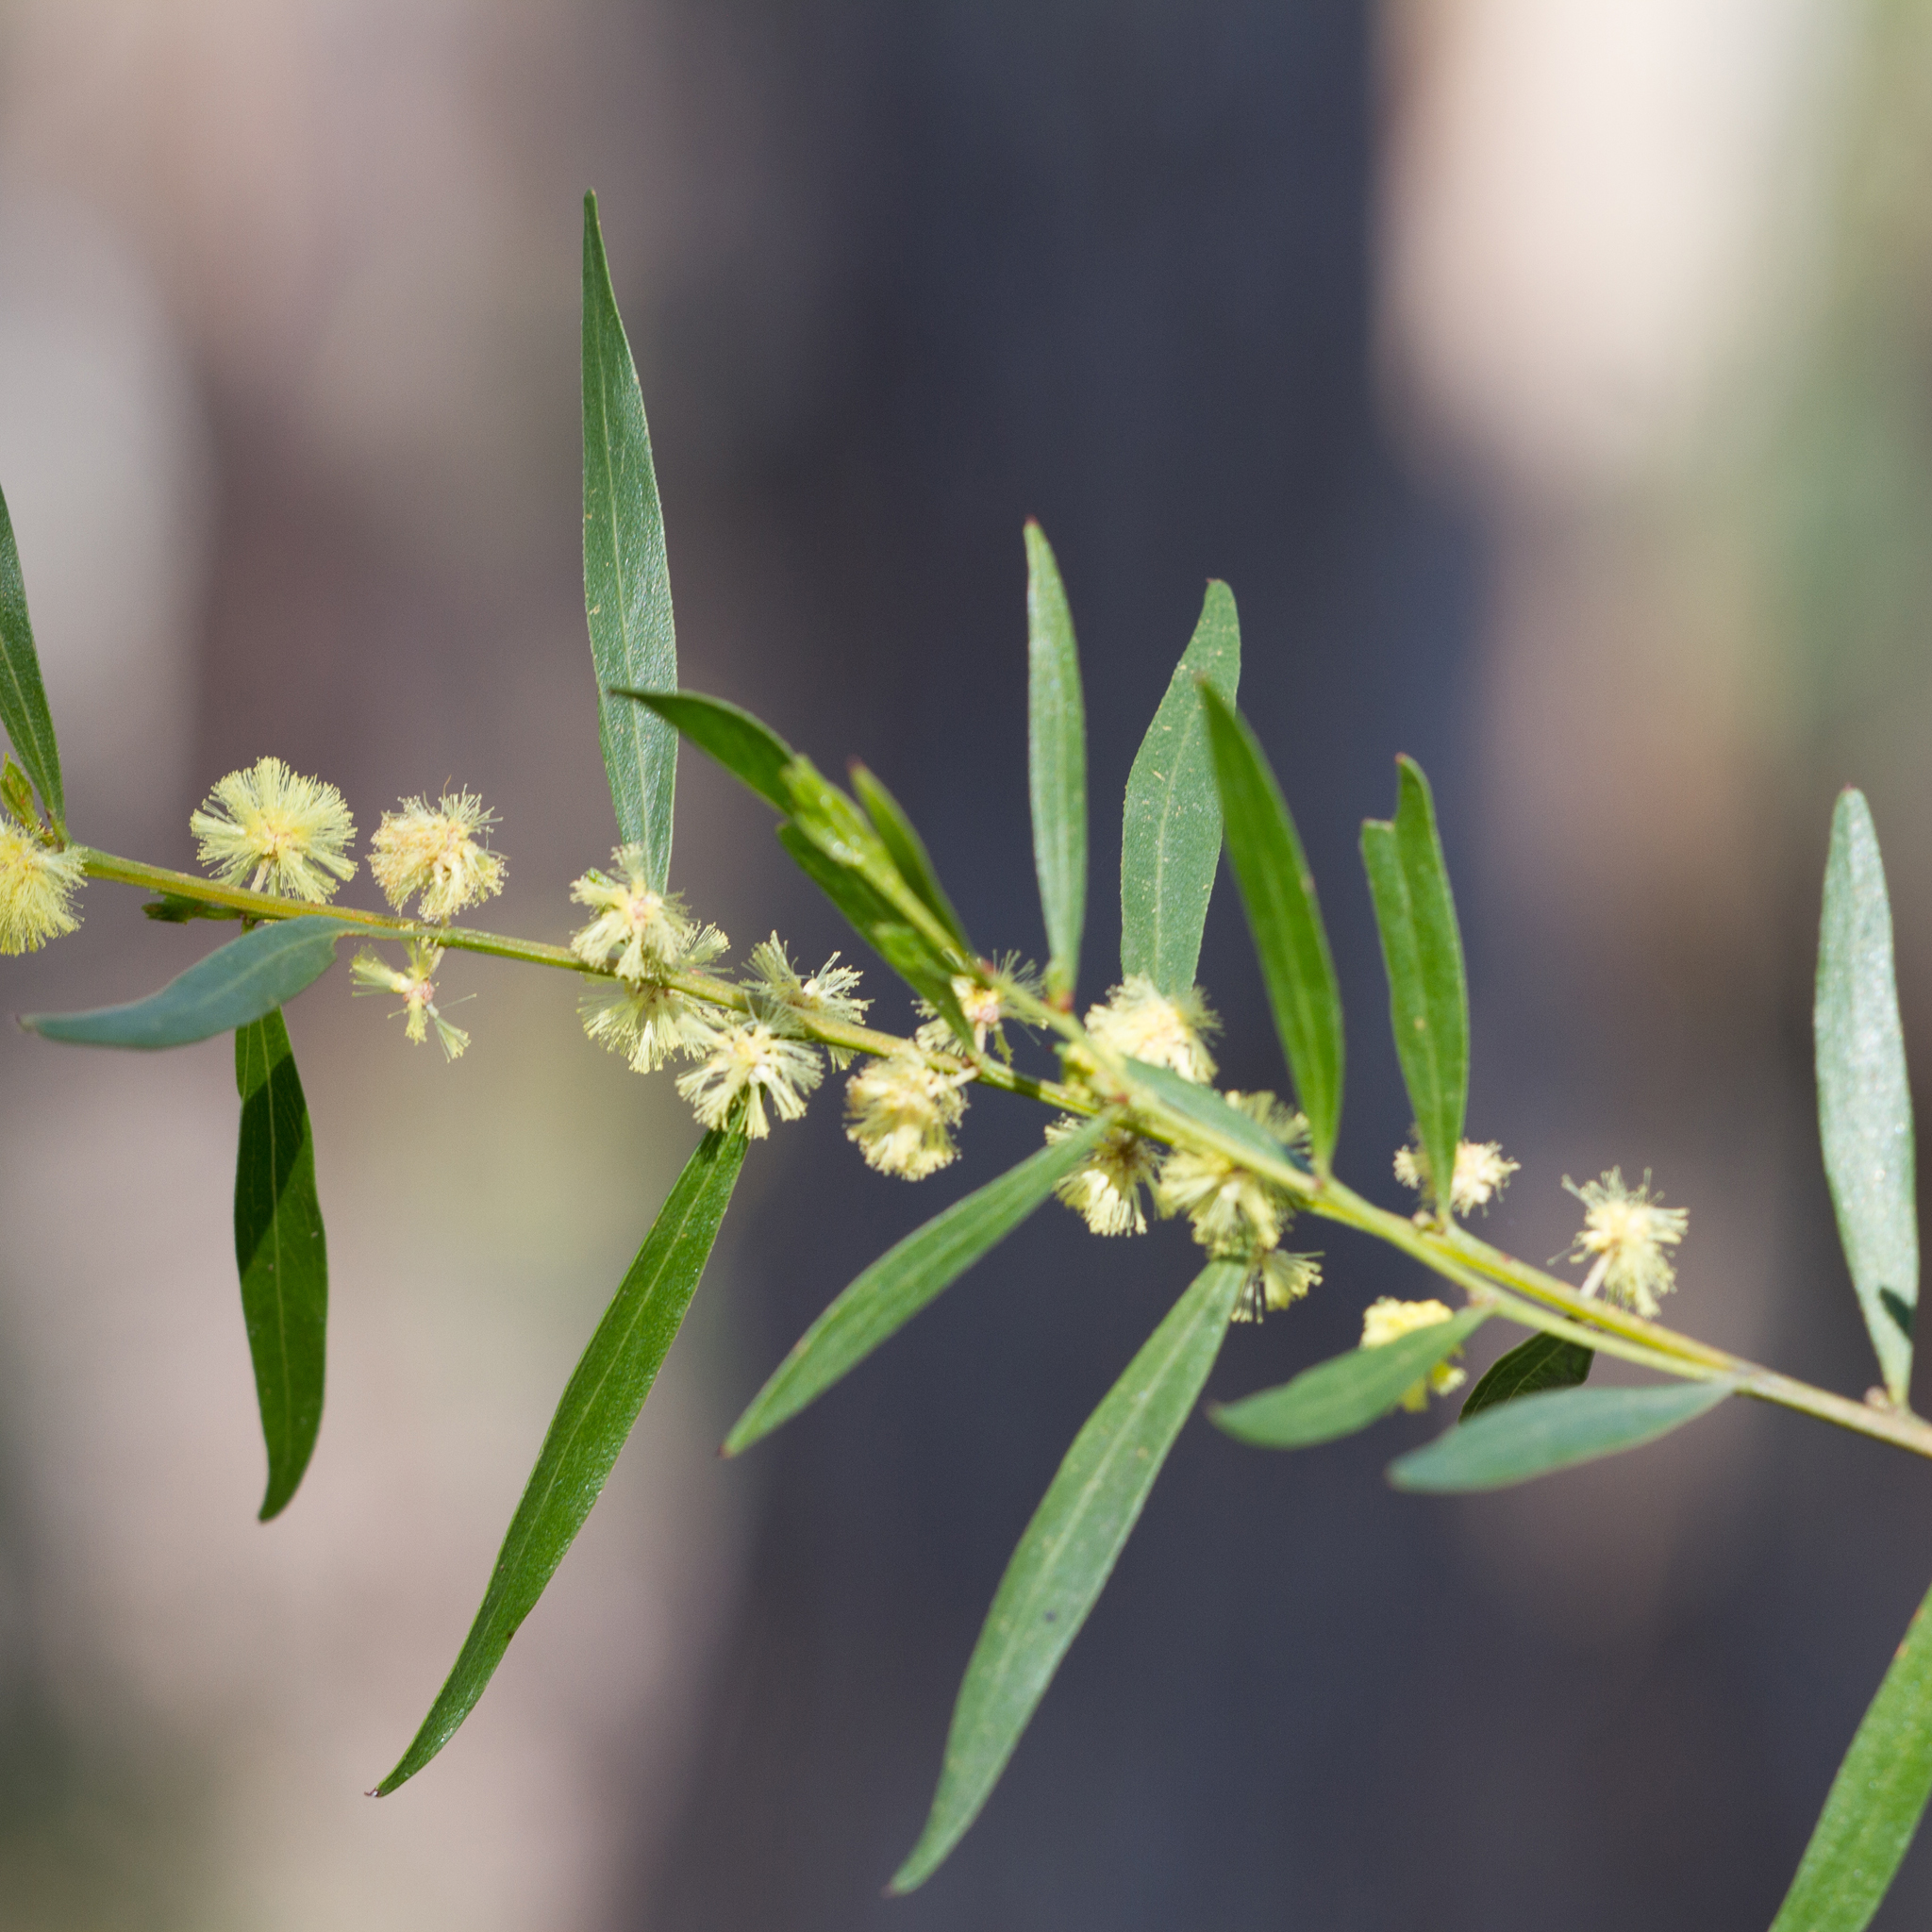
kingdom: Plantae
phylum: Tracheophyta
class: Magnoliopsida
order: Fabales
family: Fabaceae
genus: Acacia
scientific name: Acacia verniciflua
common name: Varnish wattle
